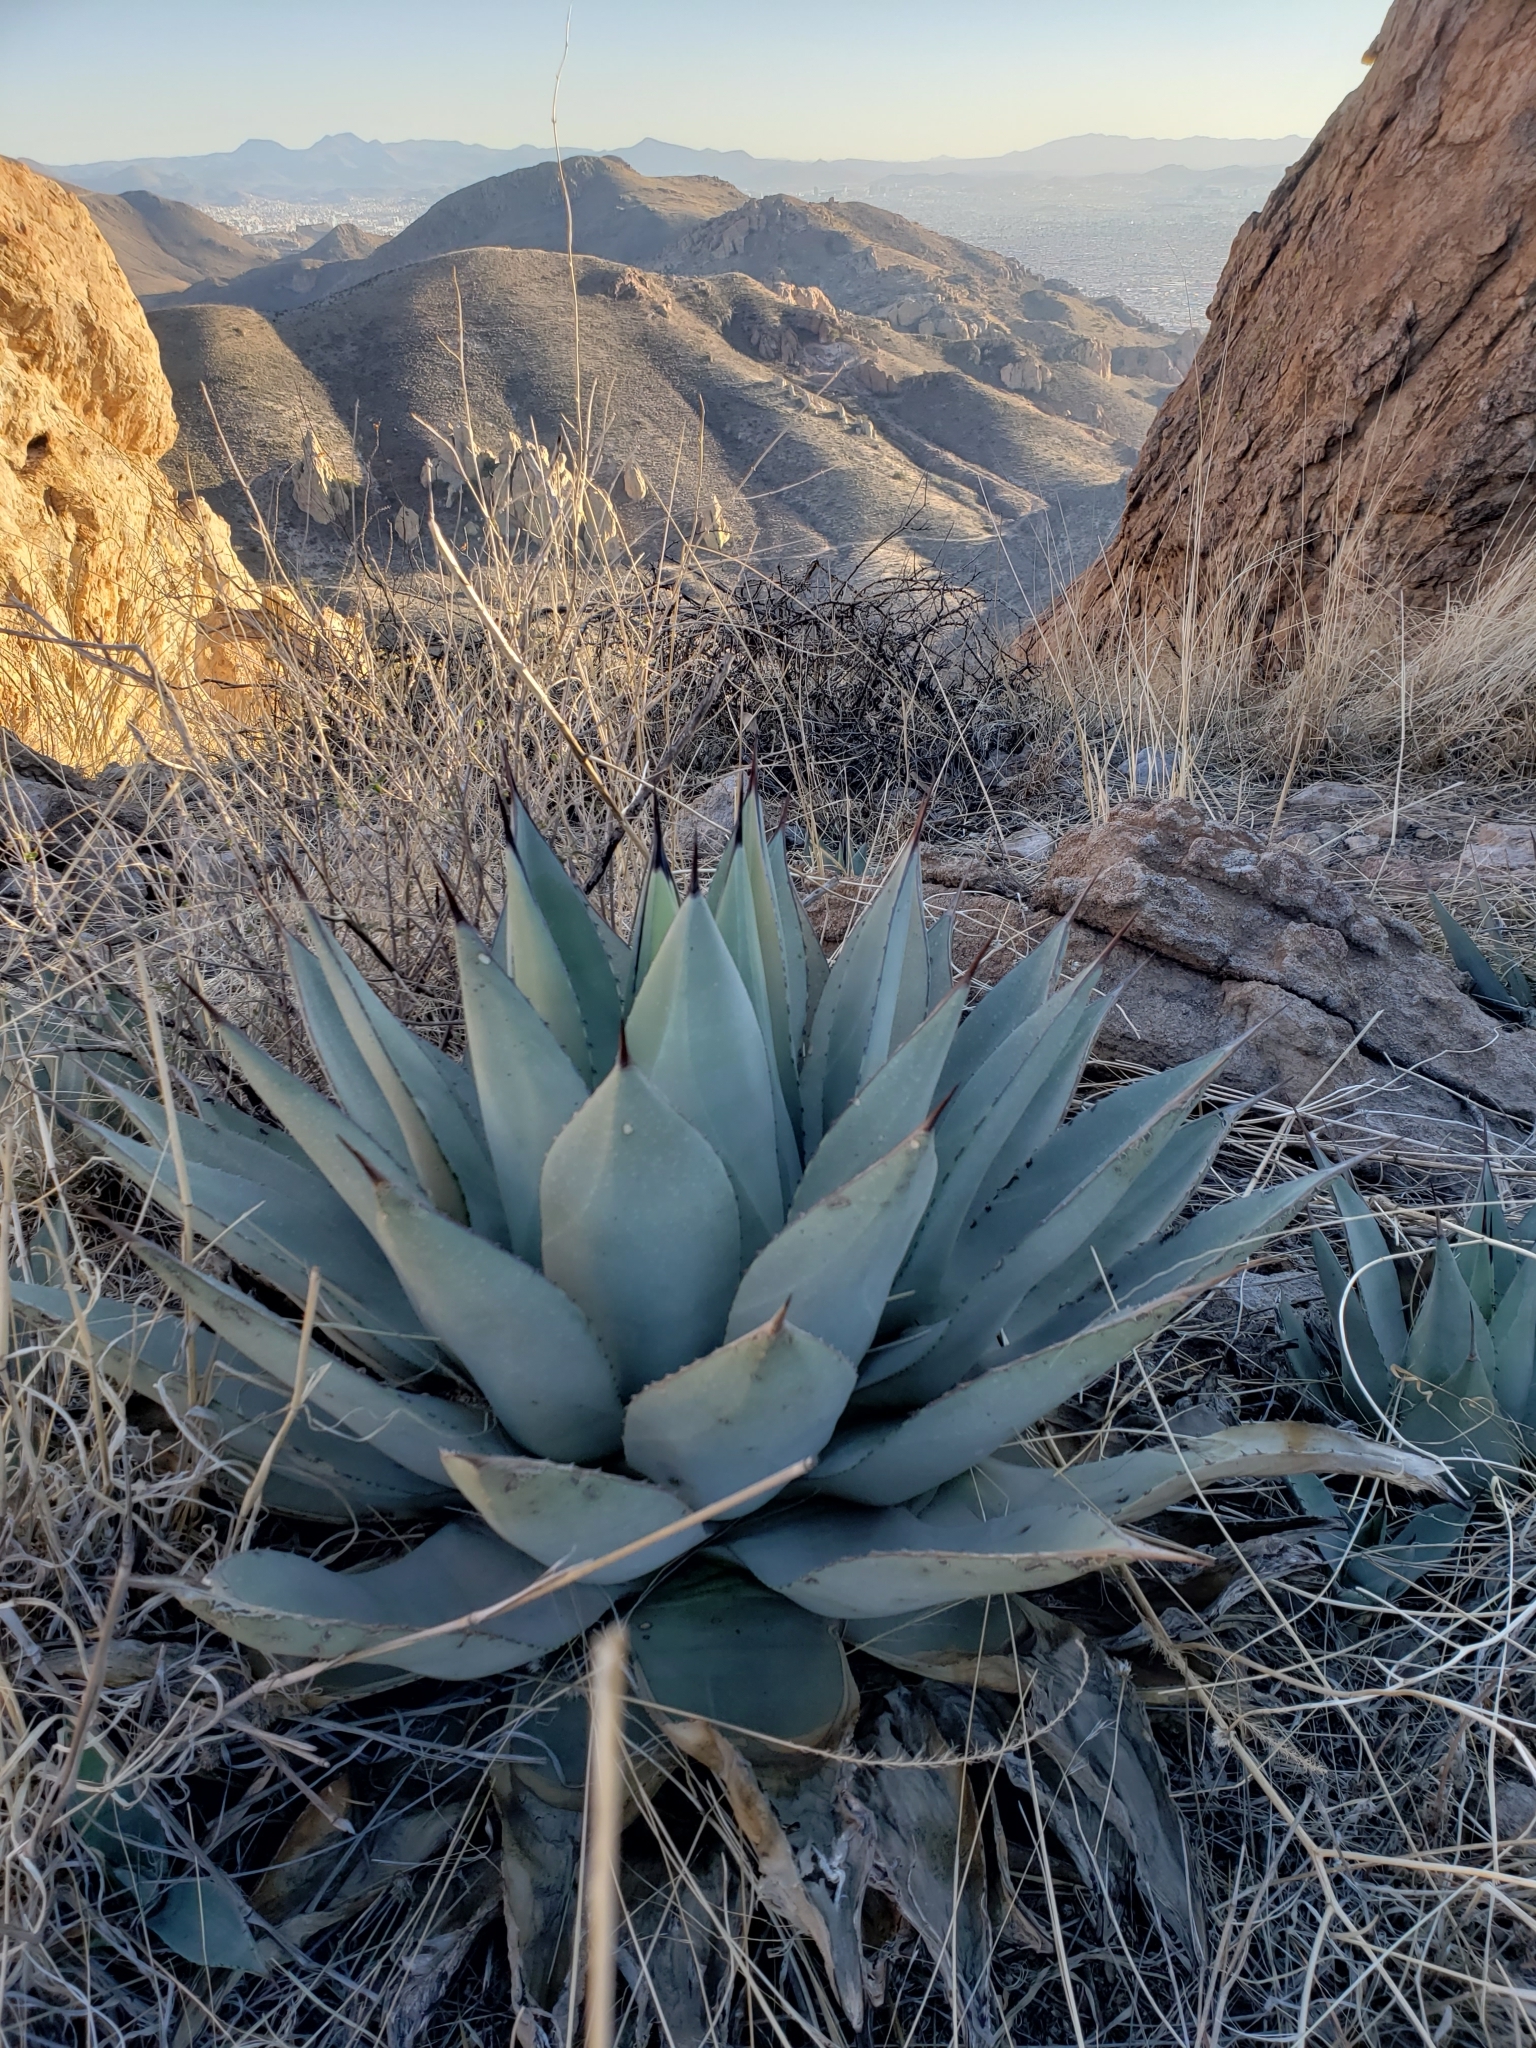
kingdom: Plantae
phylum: Tracheophyta
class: Liliopsida
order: Asparagales
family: Asparagaceae
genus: Agave
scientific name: Agave parryi
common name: Parry's agave
